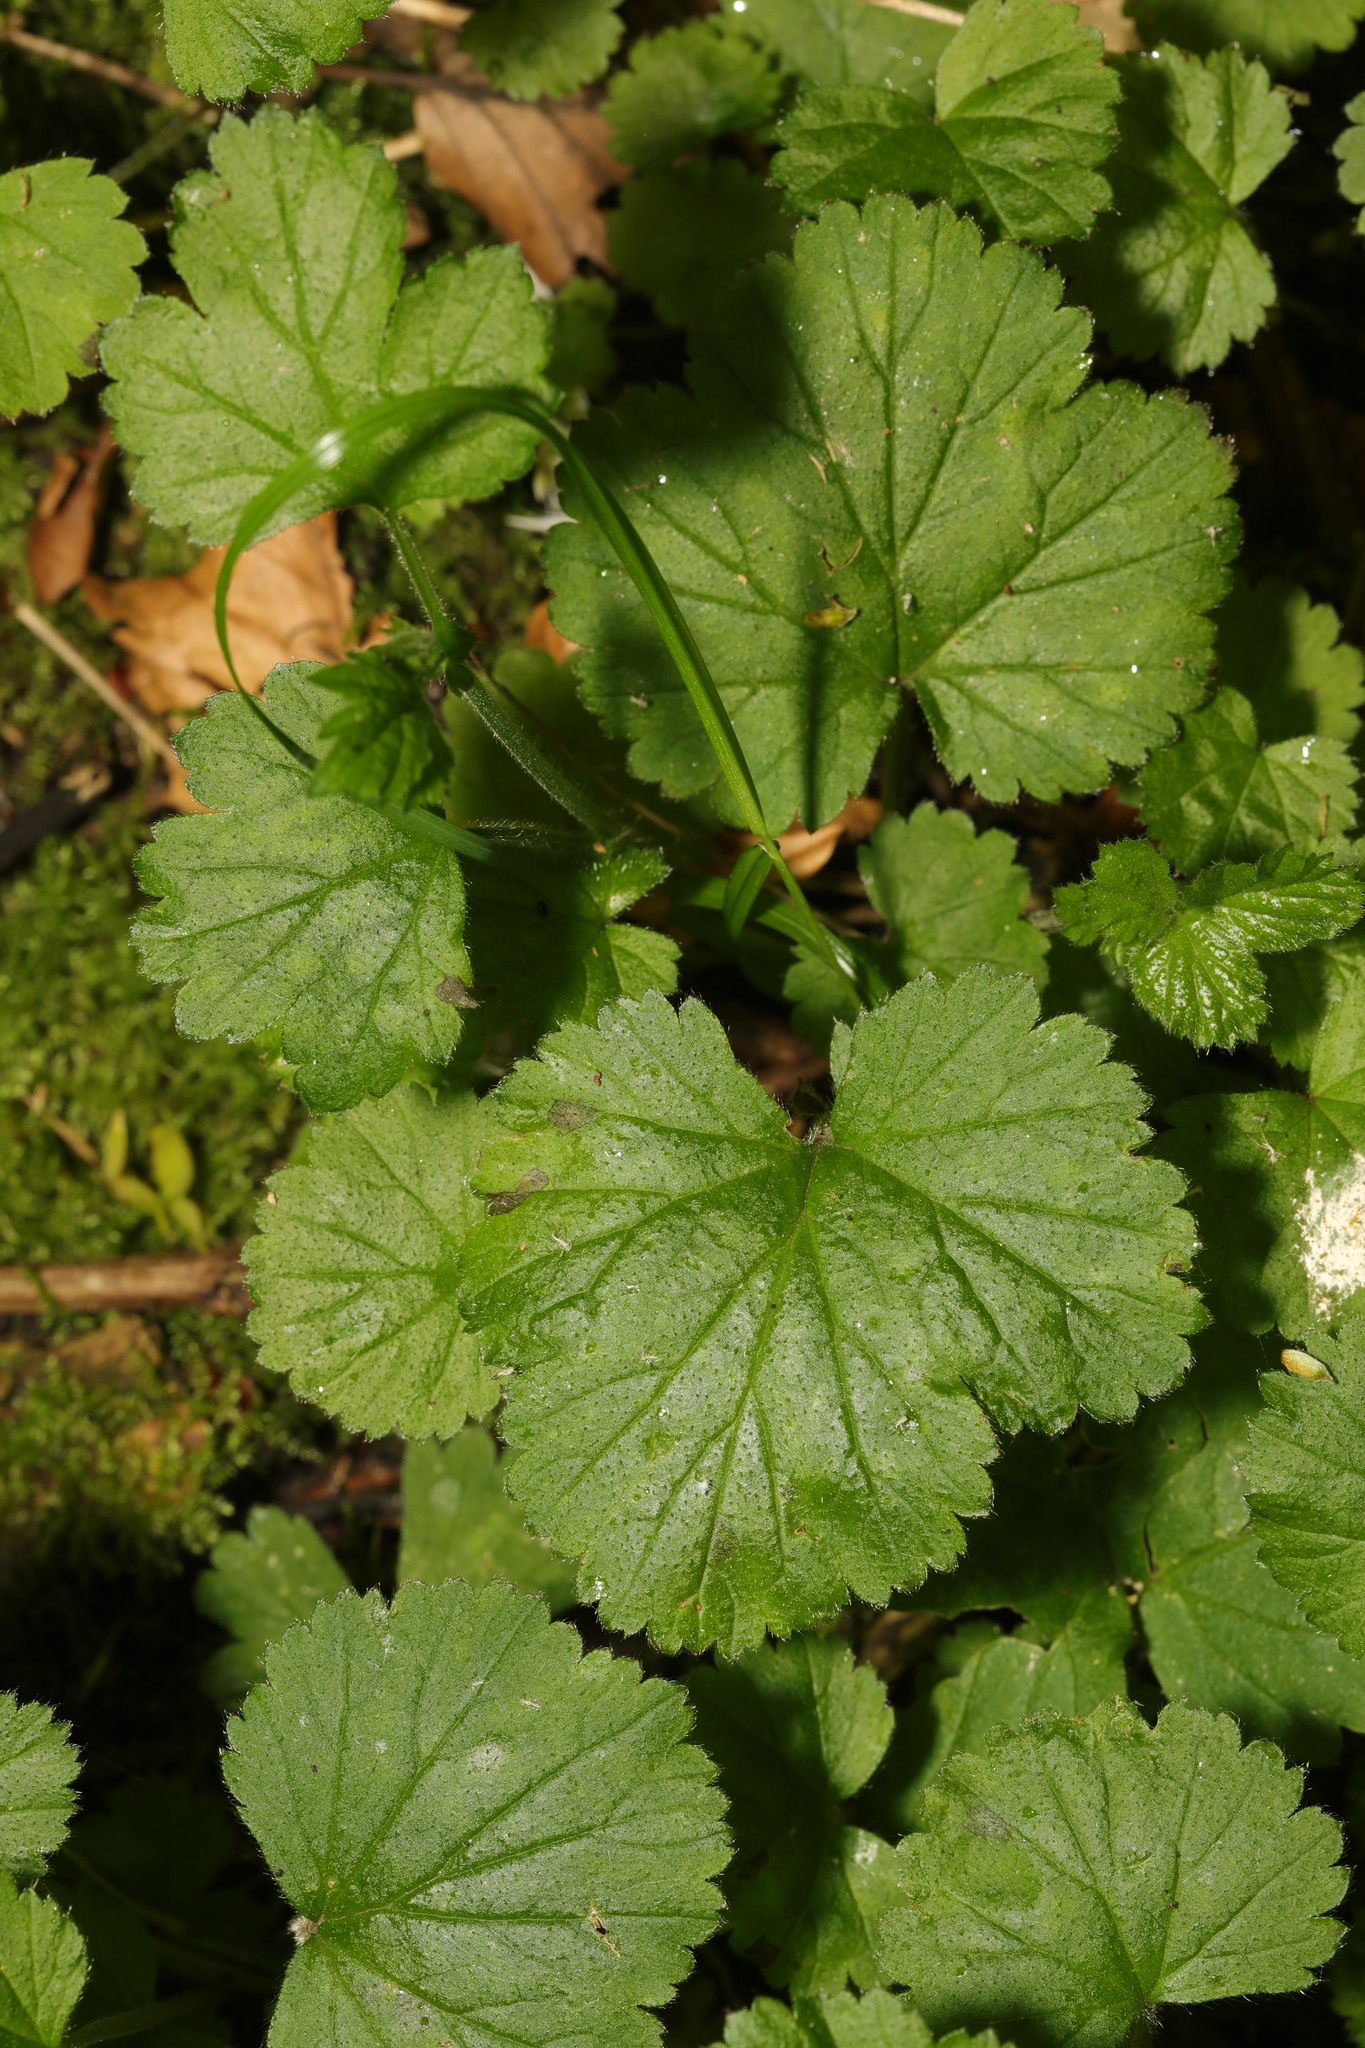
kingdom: Plantae
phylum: Tracheophyta
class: Magnoliopsida
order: Rosales
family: Rosaceae
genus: Geum
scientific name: Geum urbanum
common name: Wood avens
